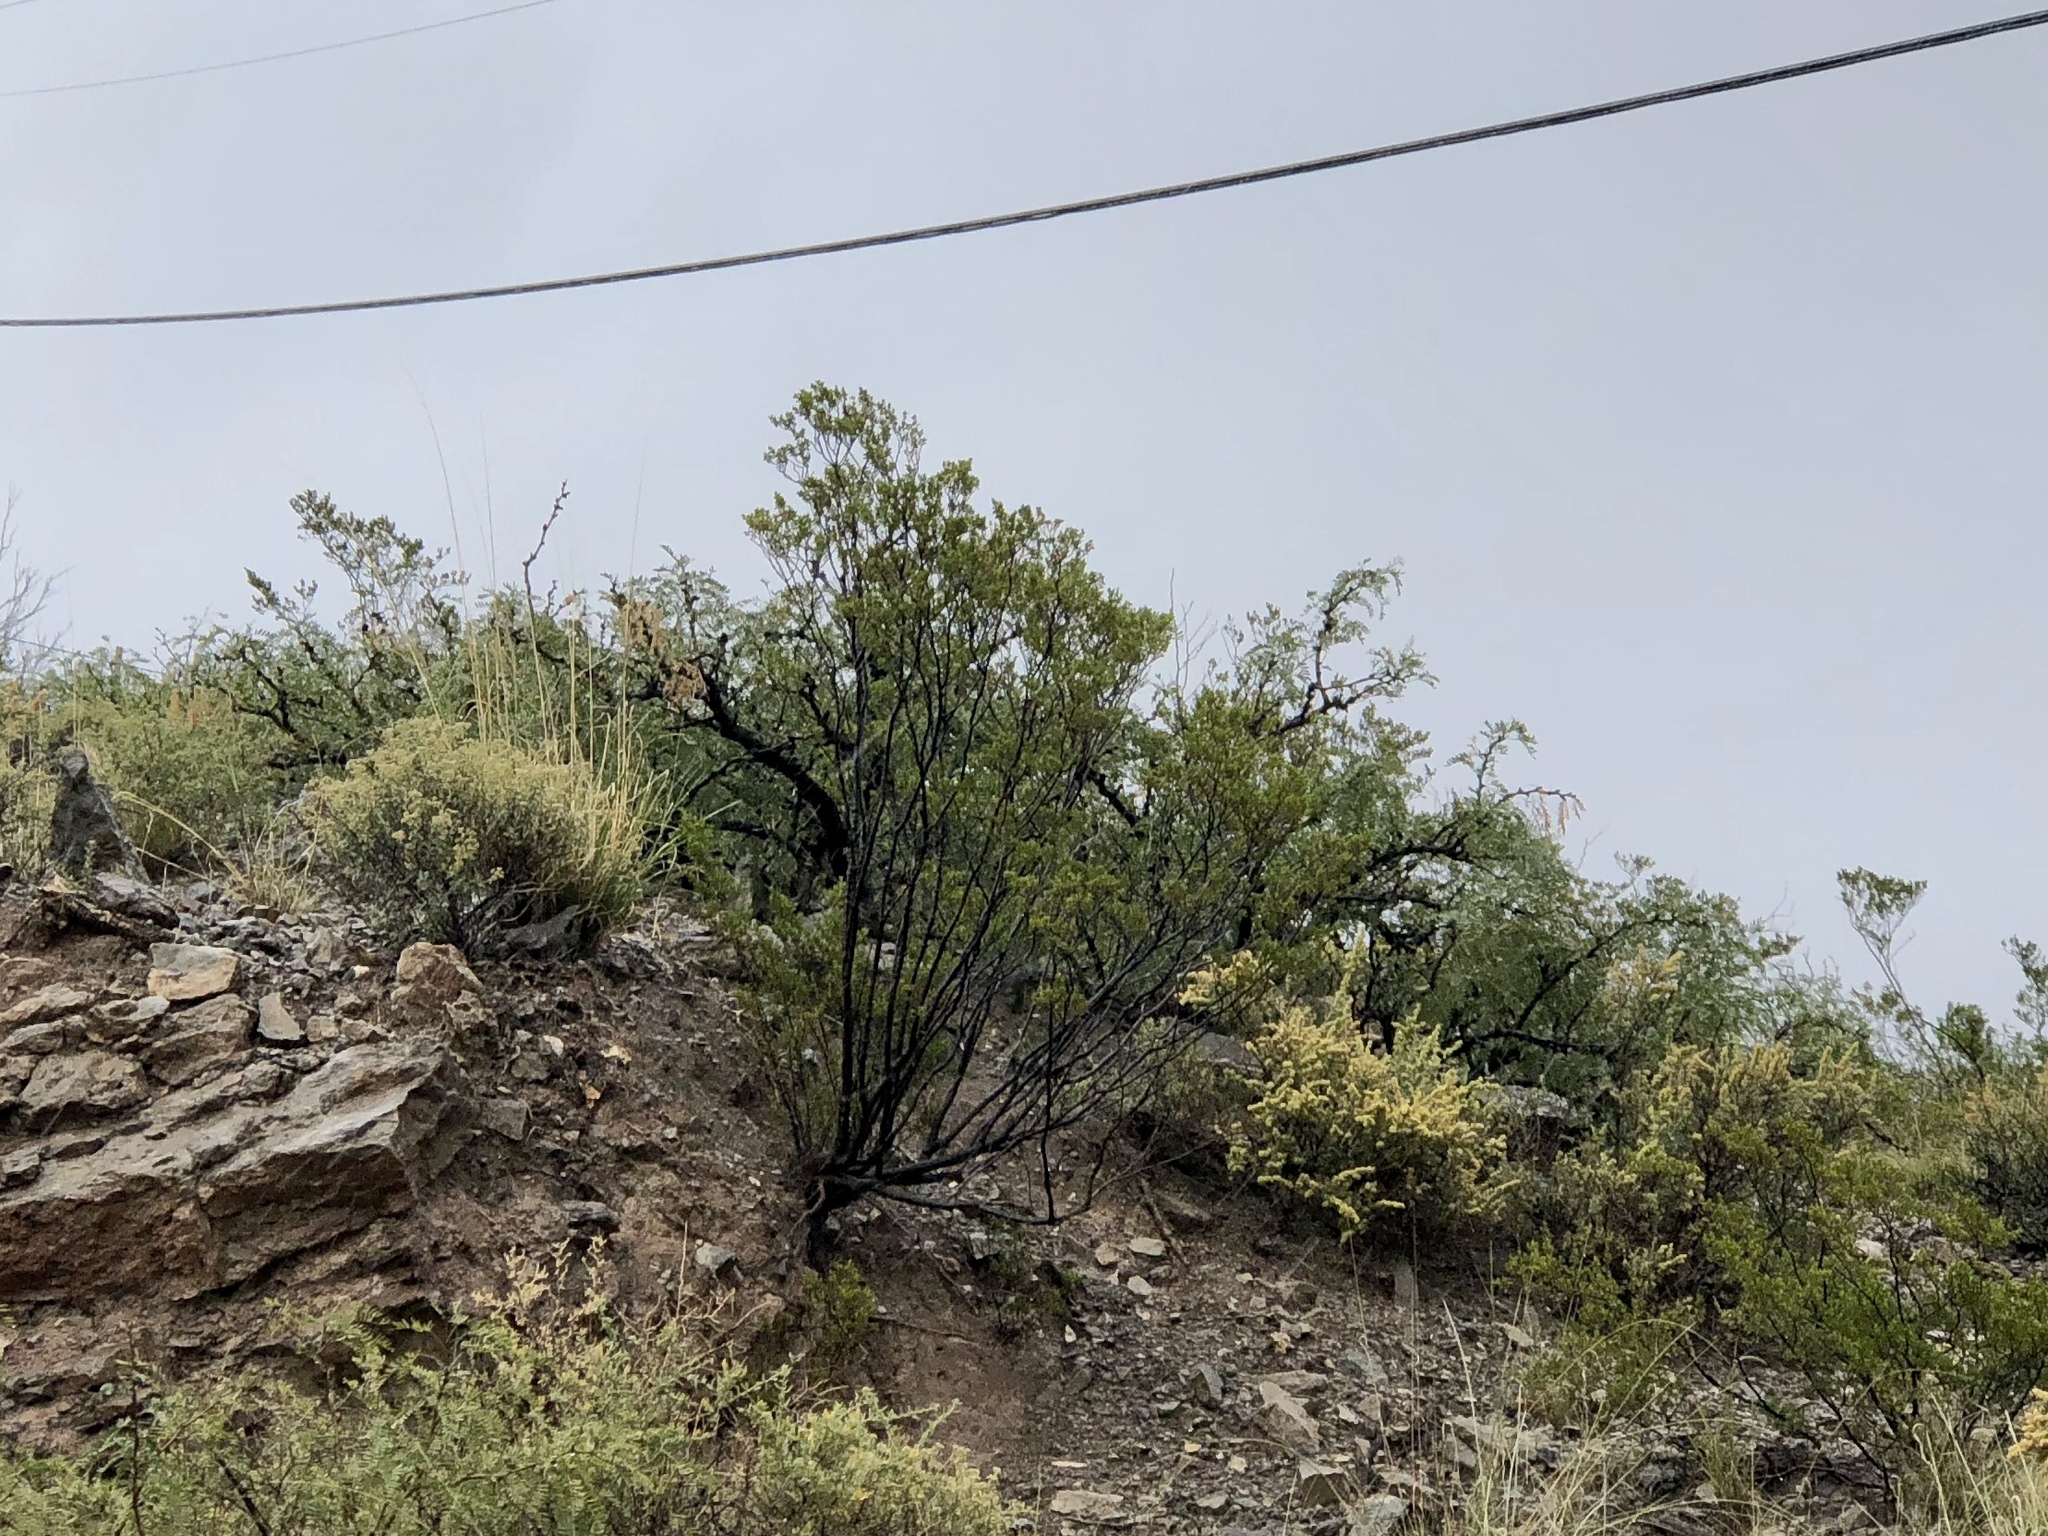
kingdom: Plantae
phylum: Tracheophyta
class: Magnoliopsida
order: Zygophyllales
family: Zygophyllaceae
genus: Larrea
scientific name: Larrea tridentata
